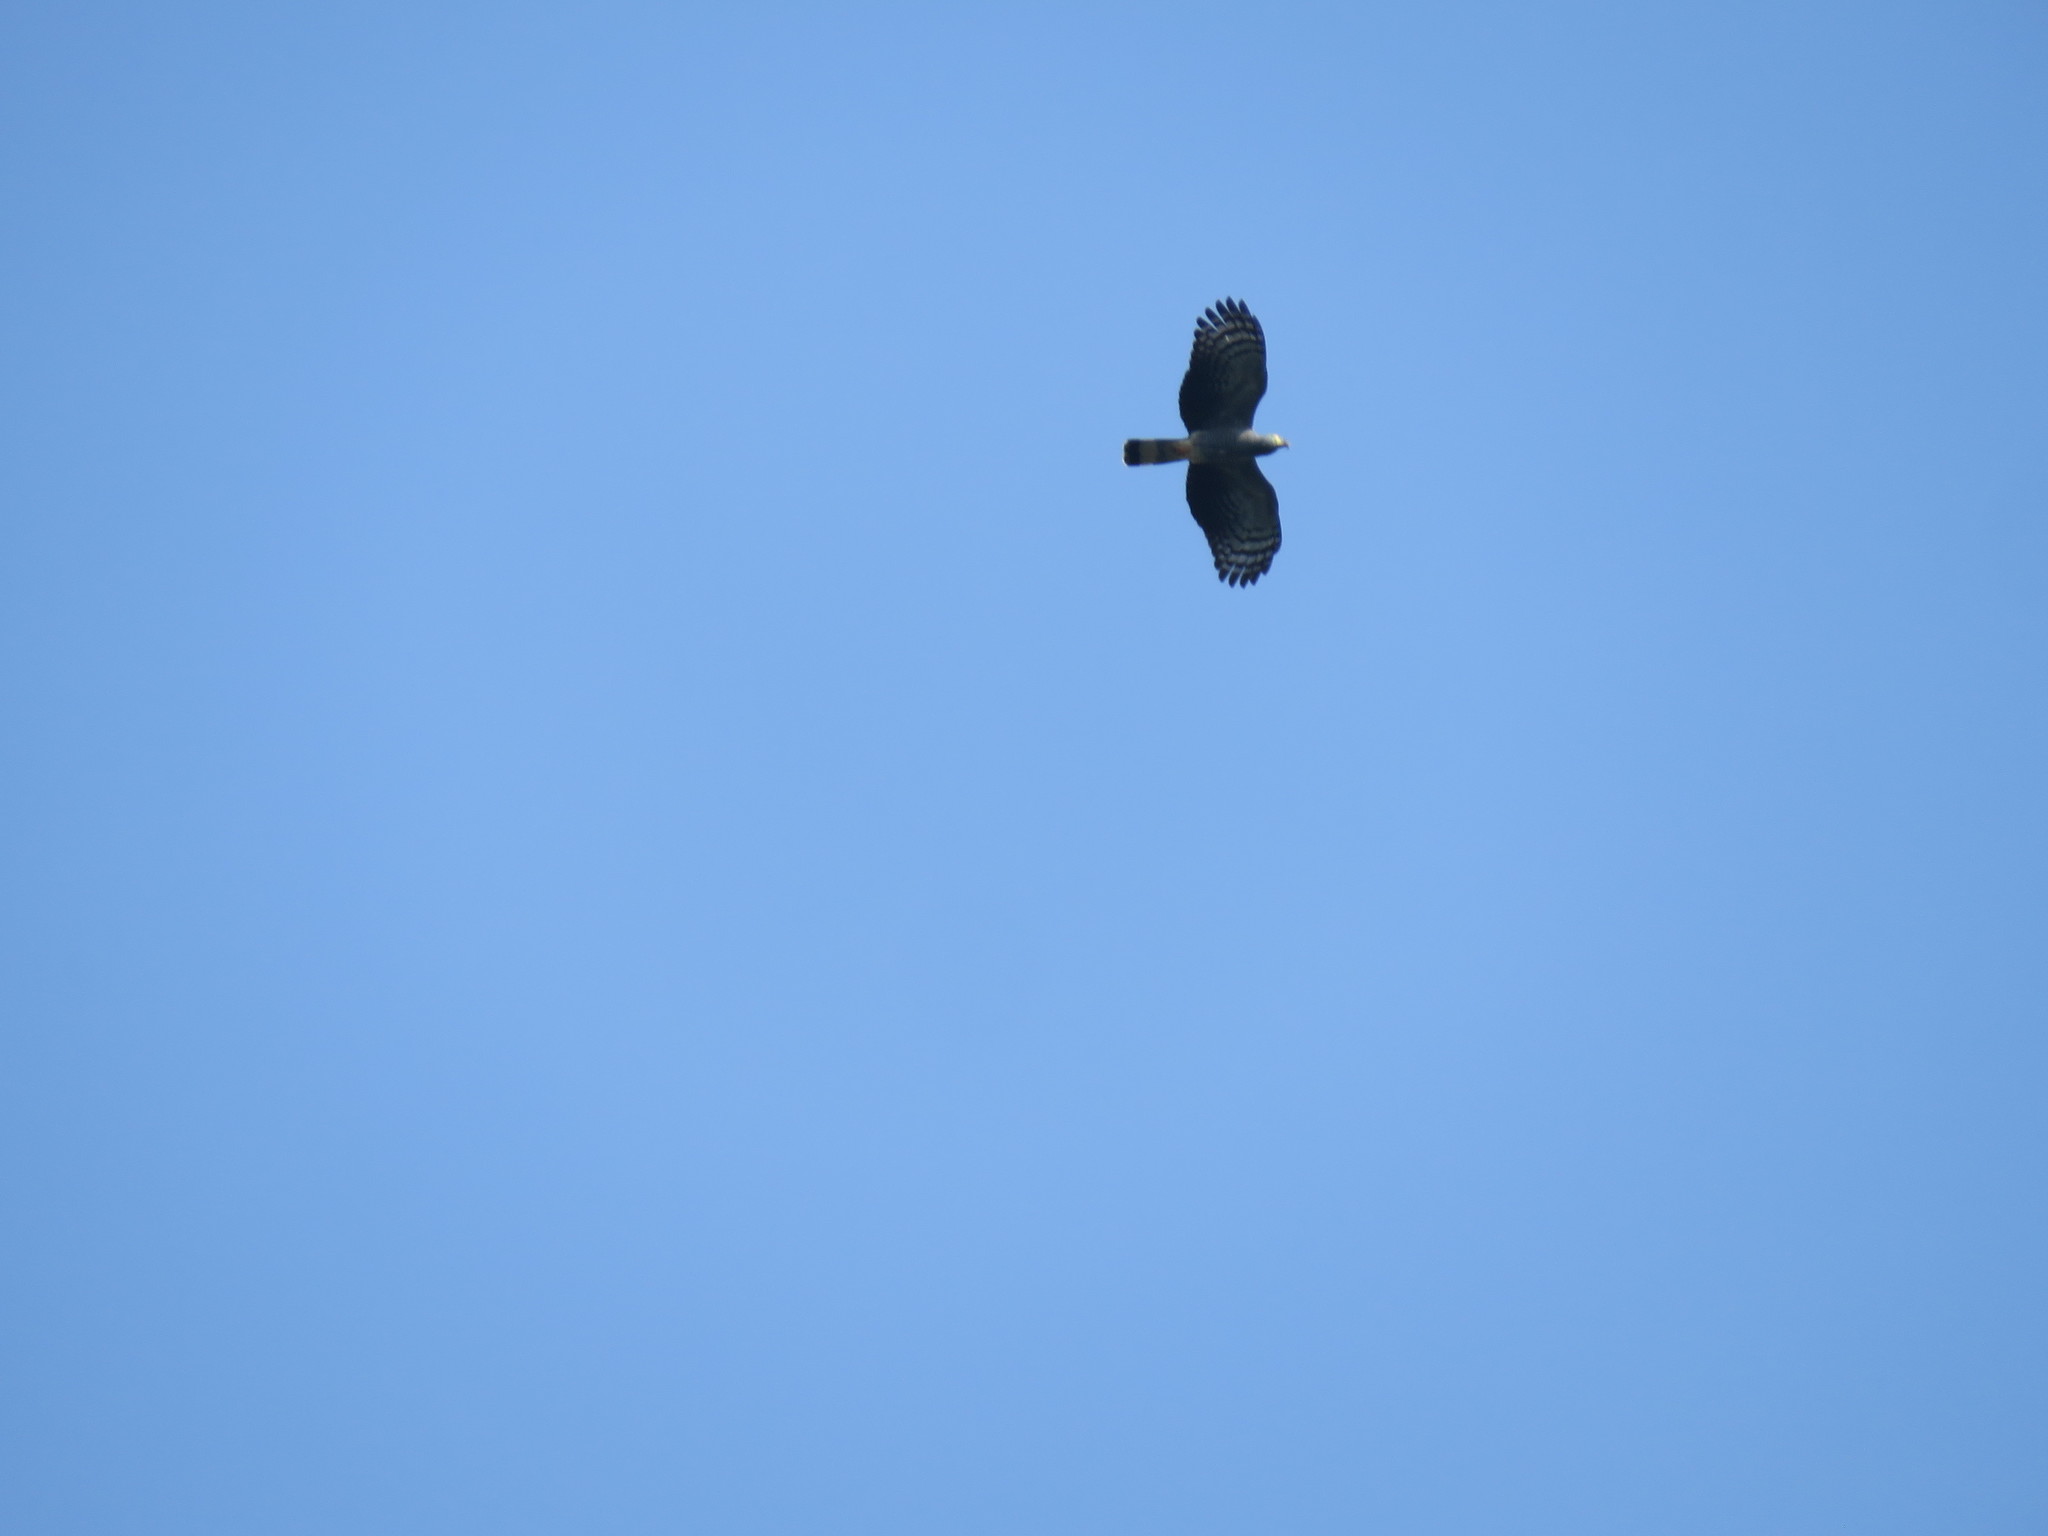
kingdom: Animalia
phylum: Chordata
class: Aves
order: Accipitriformes
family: Accipitridae
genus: Chondrohierax
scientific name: Chondrohierax uncinatus
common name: Hook-billed kite
